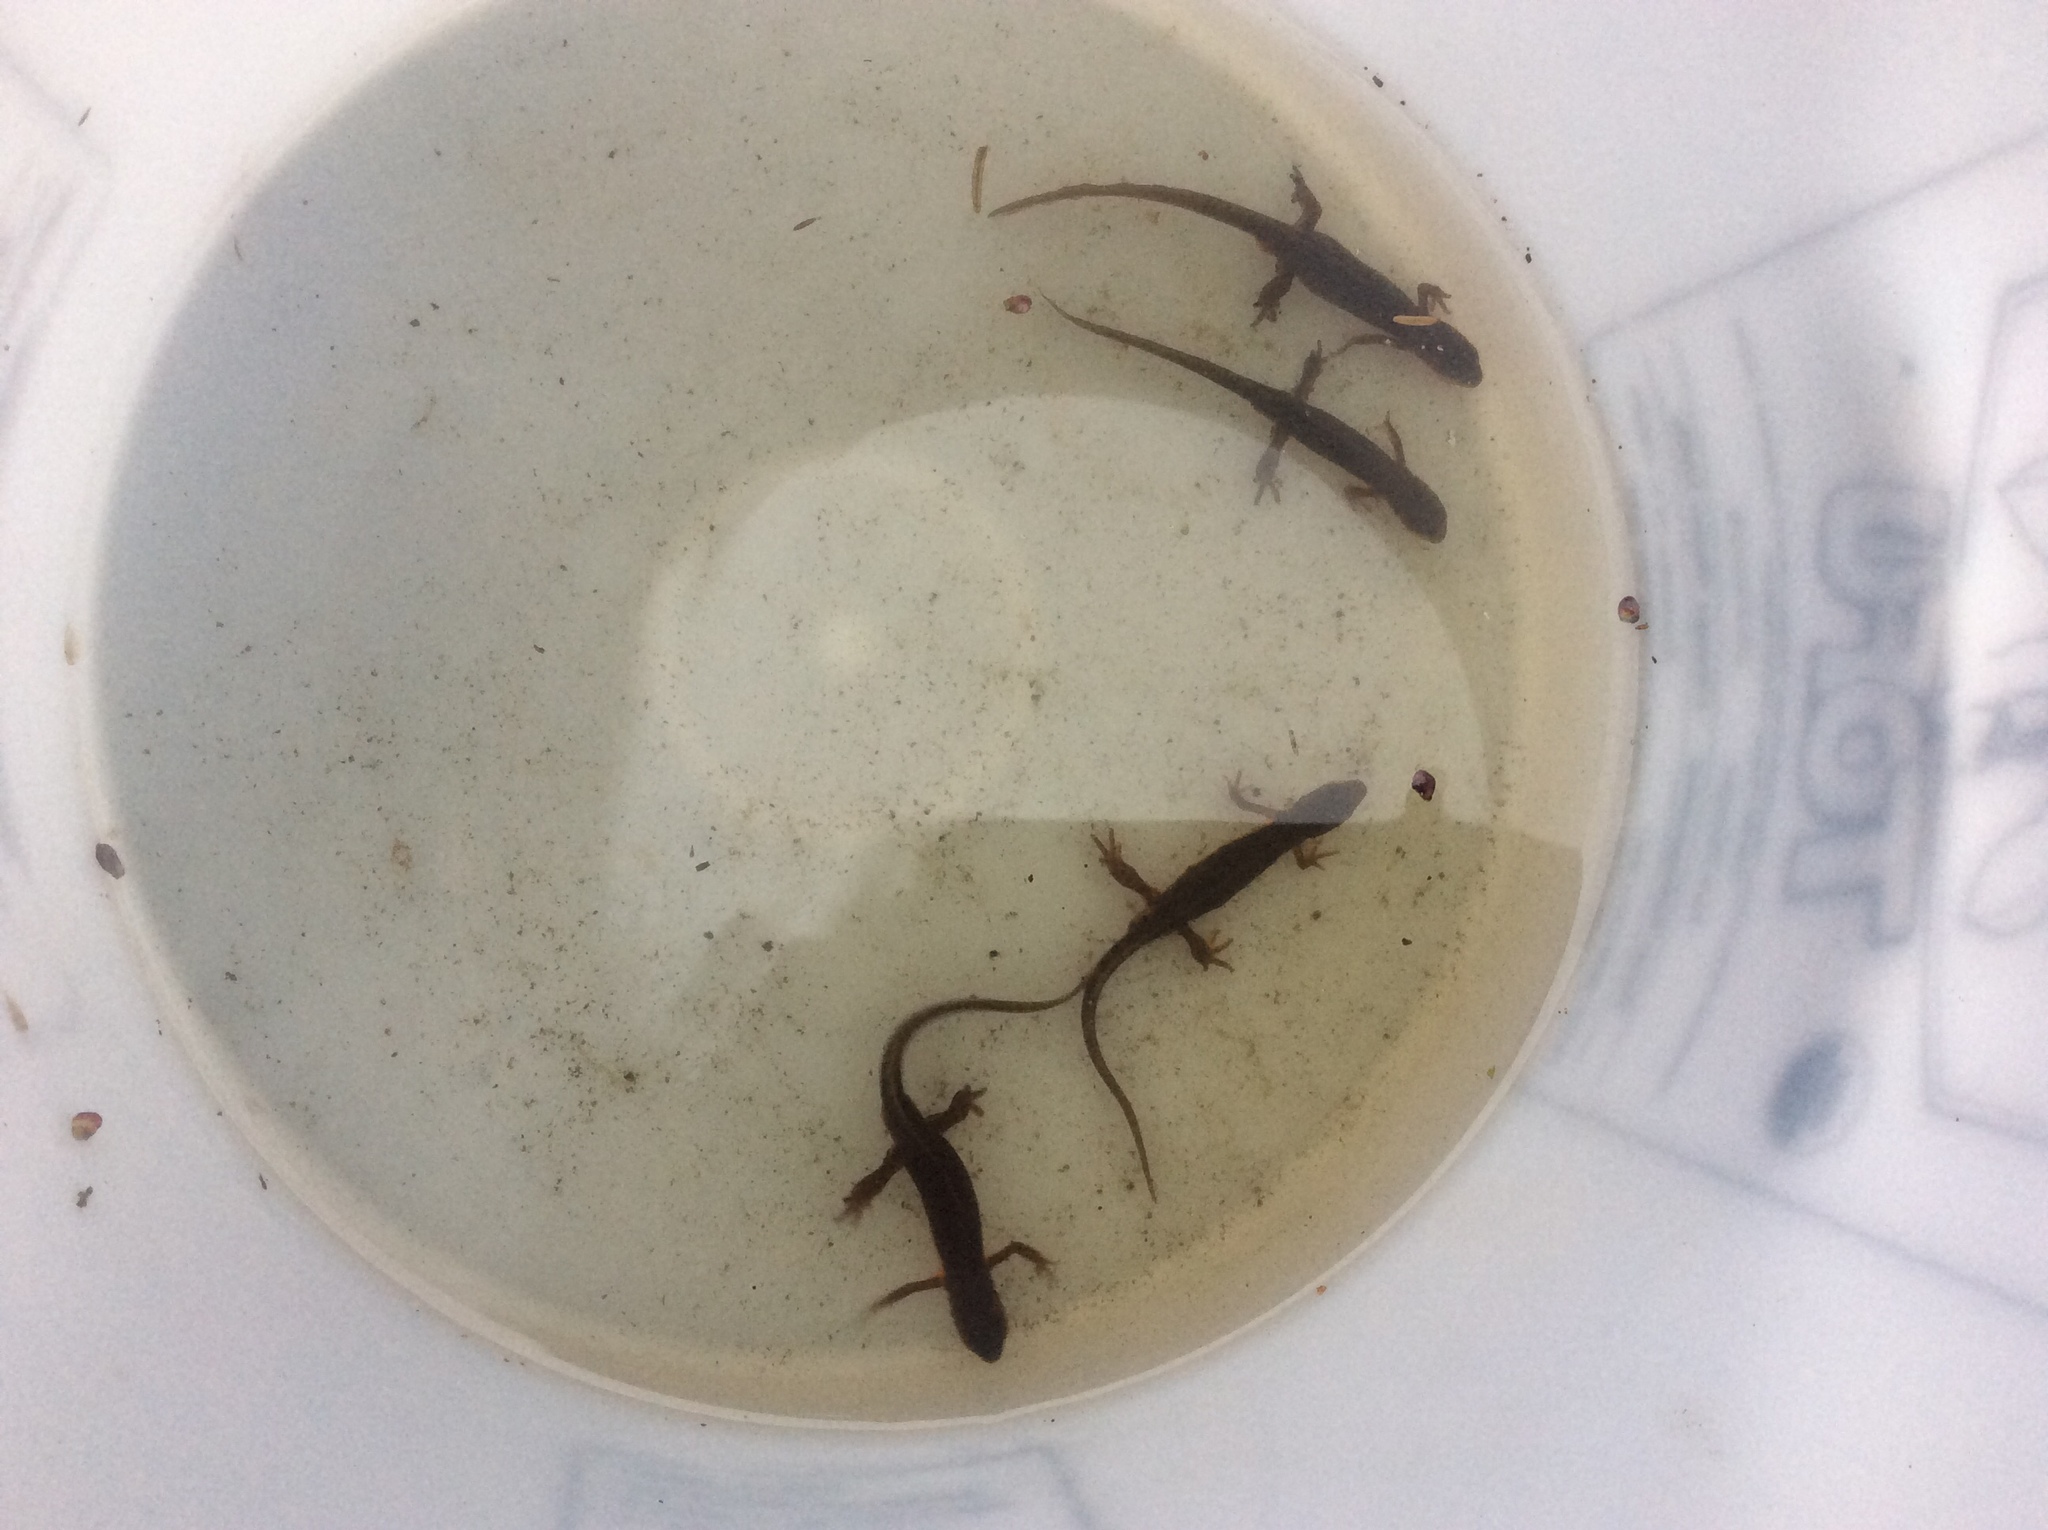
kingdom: Animalia
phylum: Chordata
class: Amphibia
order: Caudata
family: Salamandridae
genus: Notophthalmus
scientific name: Notophthalmus viridescens
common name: Eastern newt
